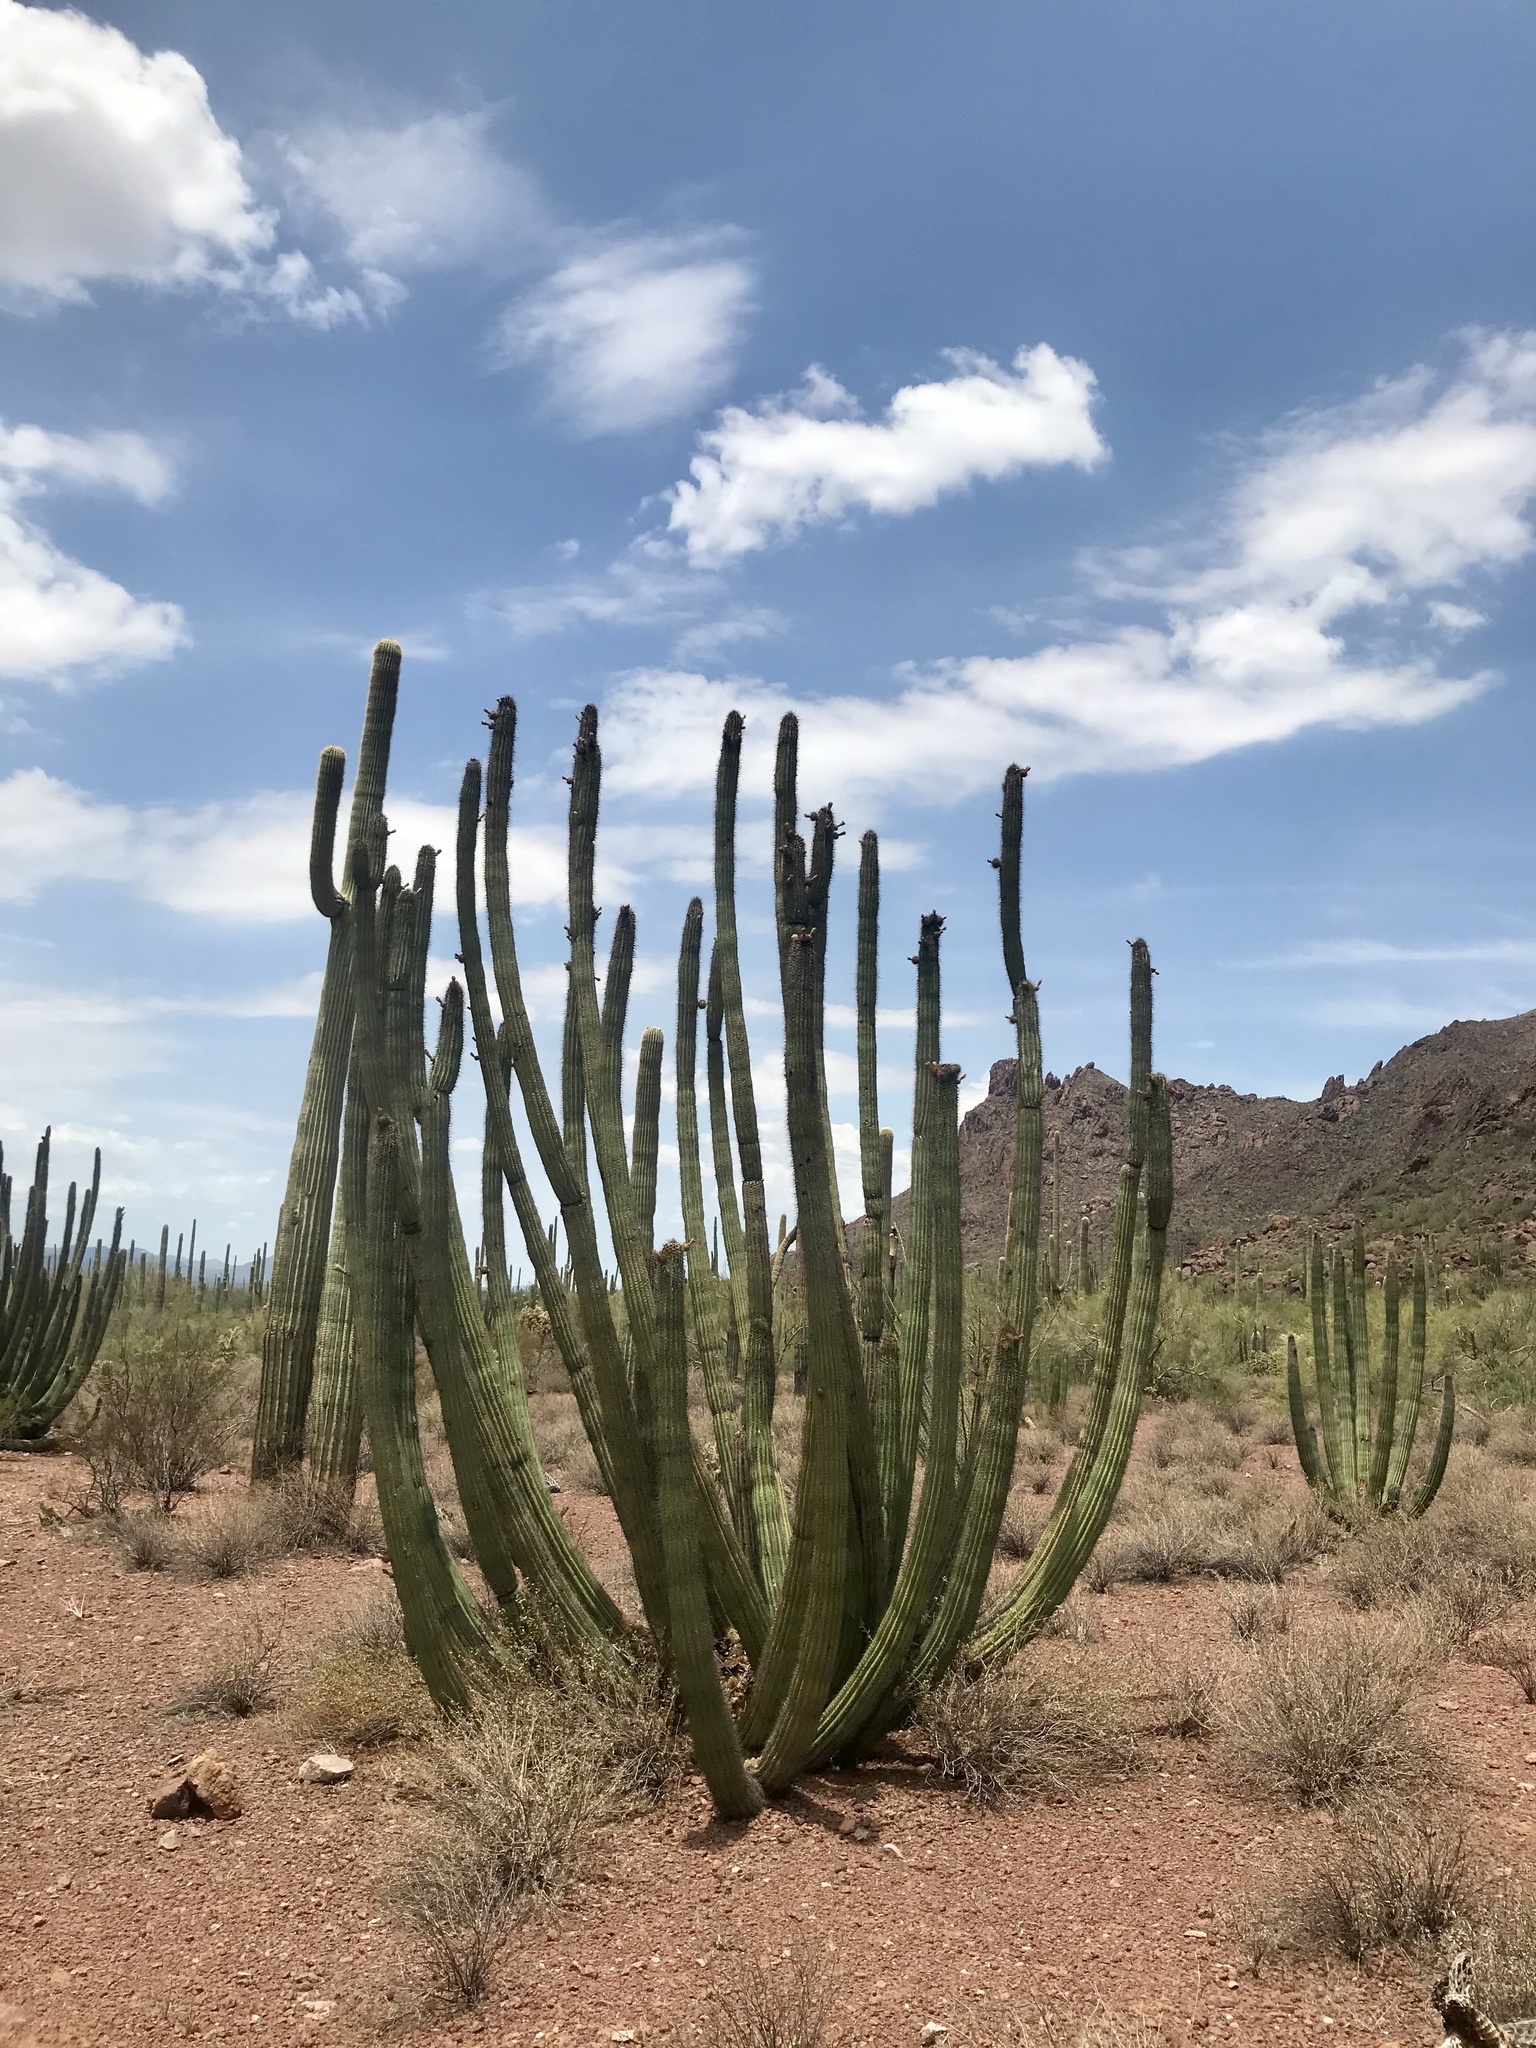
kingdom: Plantae
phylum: Tracheophyta
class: Magnoliopsida
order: Caryophyllales
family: Cactaceae
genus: Stenocereus
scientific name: Stenocereus thurberi
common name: Organ pipe cactus
